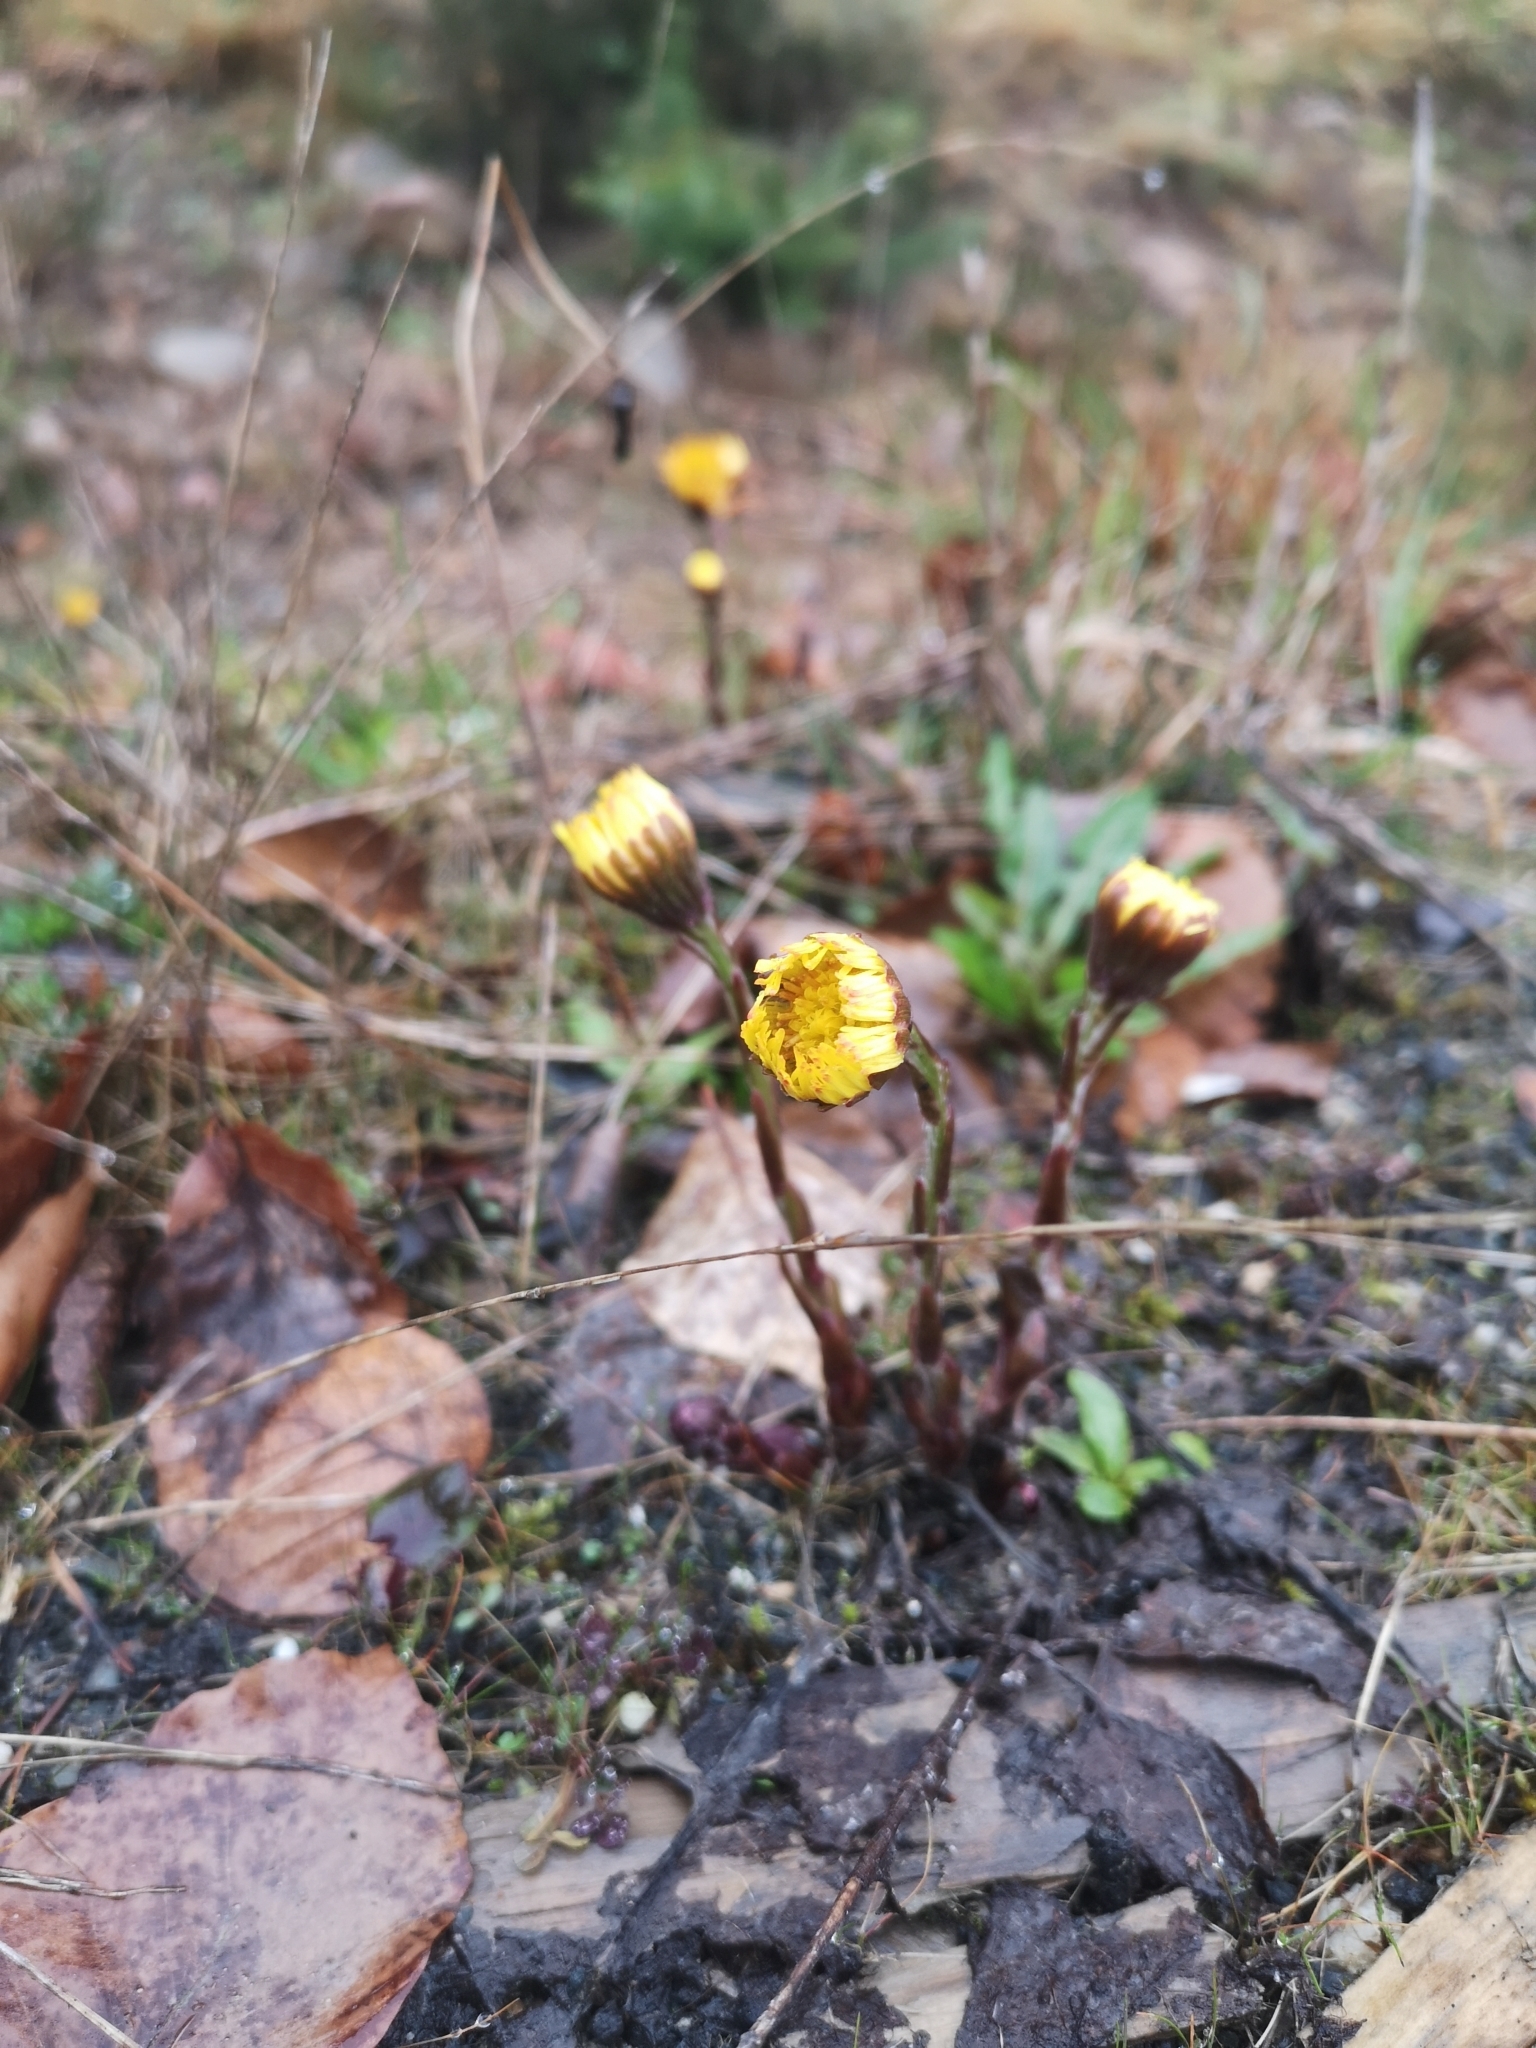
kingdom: Plantae
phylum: Tracheophyta
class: Magnoliopsida
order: Asterales
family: Asteraceae
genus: Tussilago
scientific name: Tussilago farfara
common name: Coltsfoot
